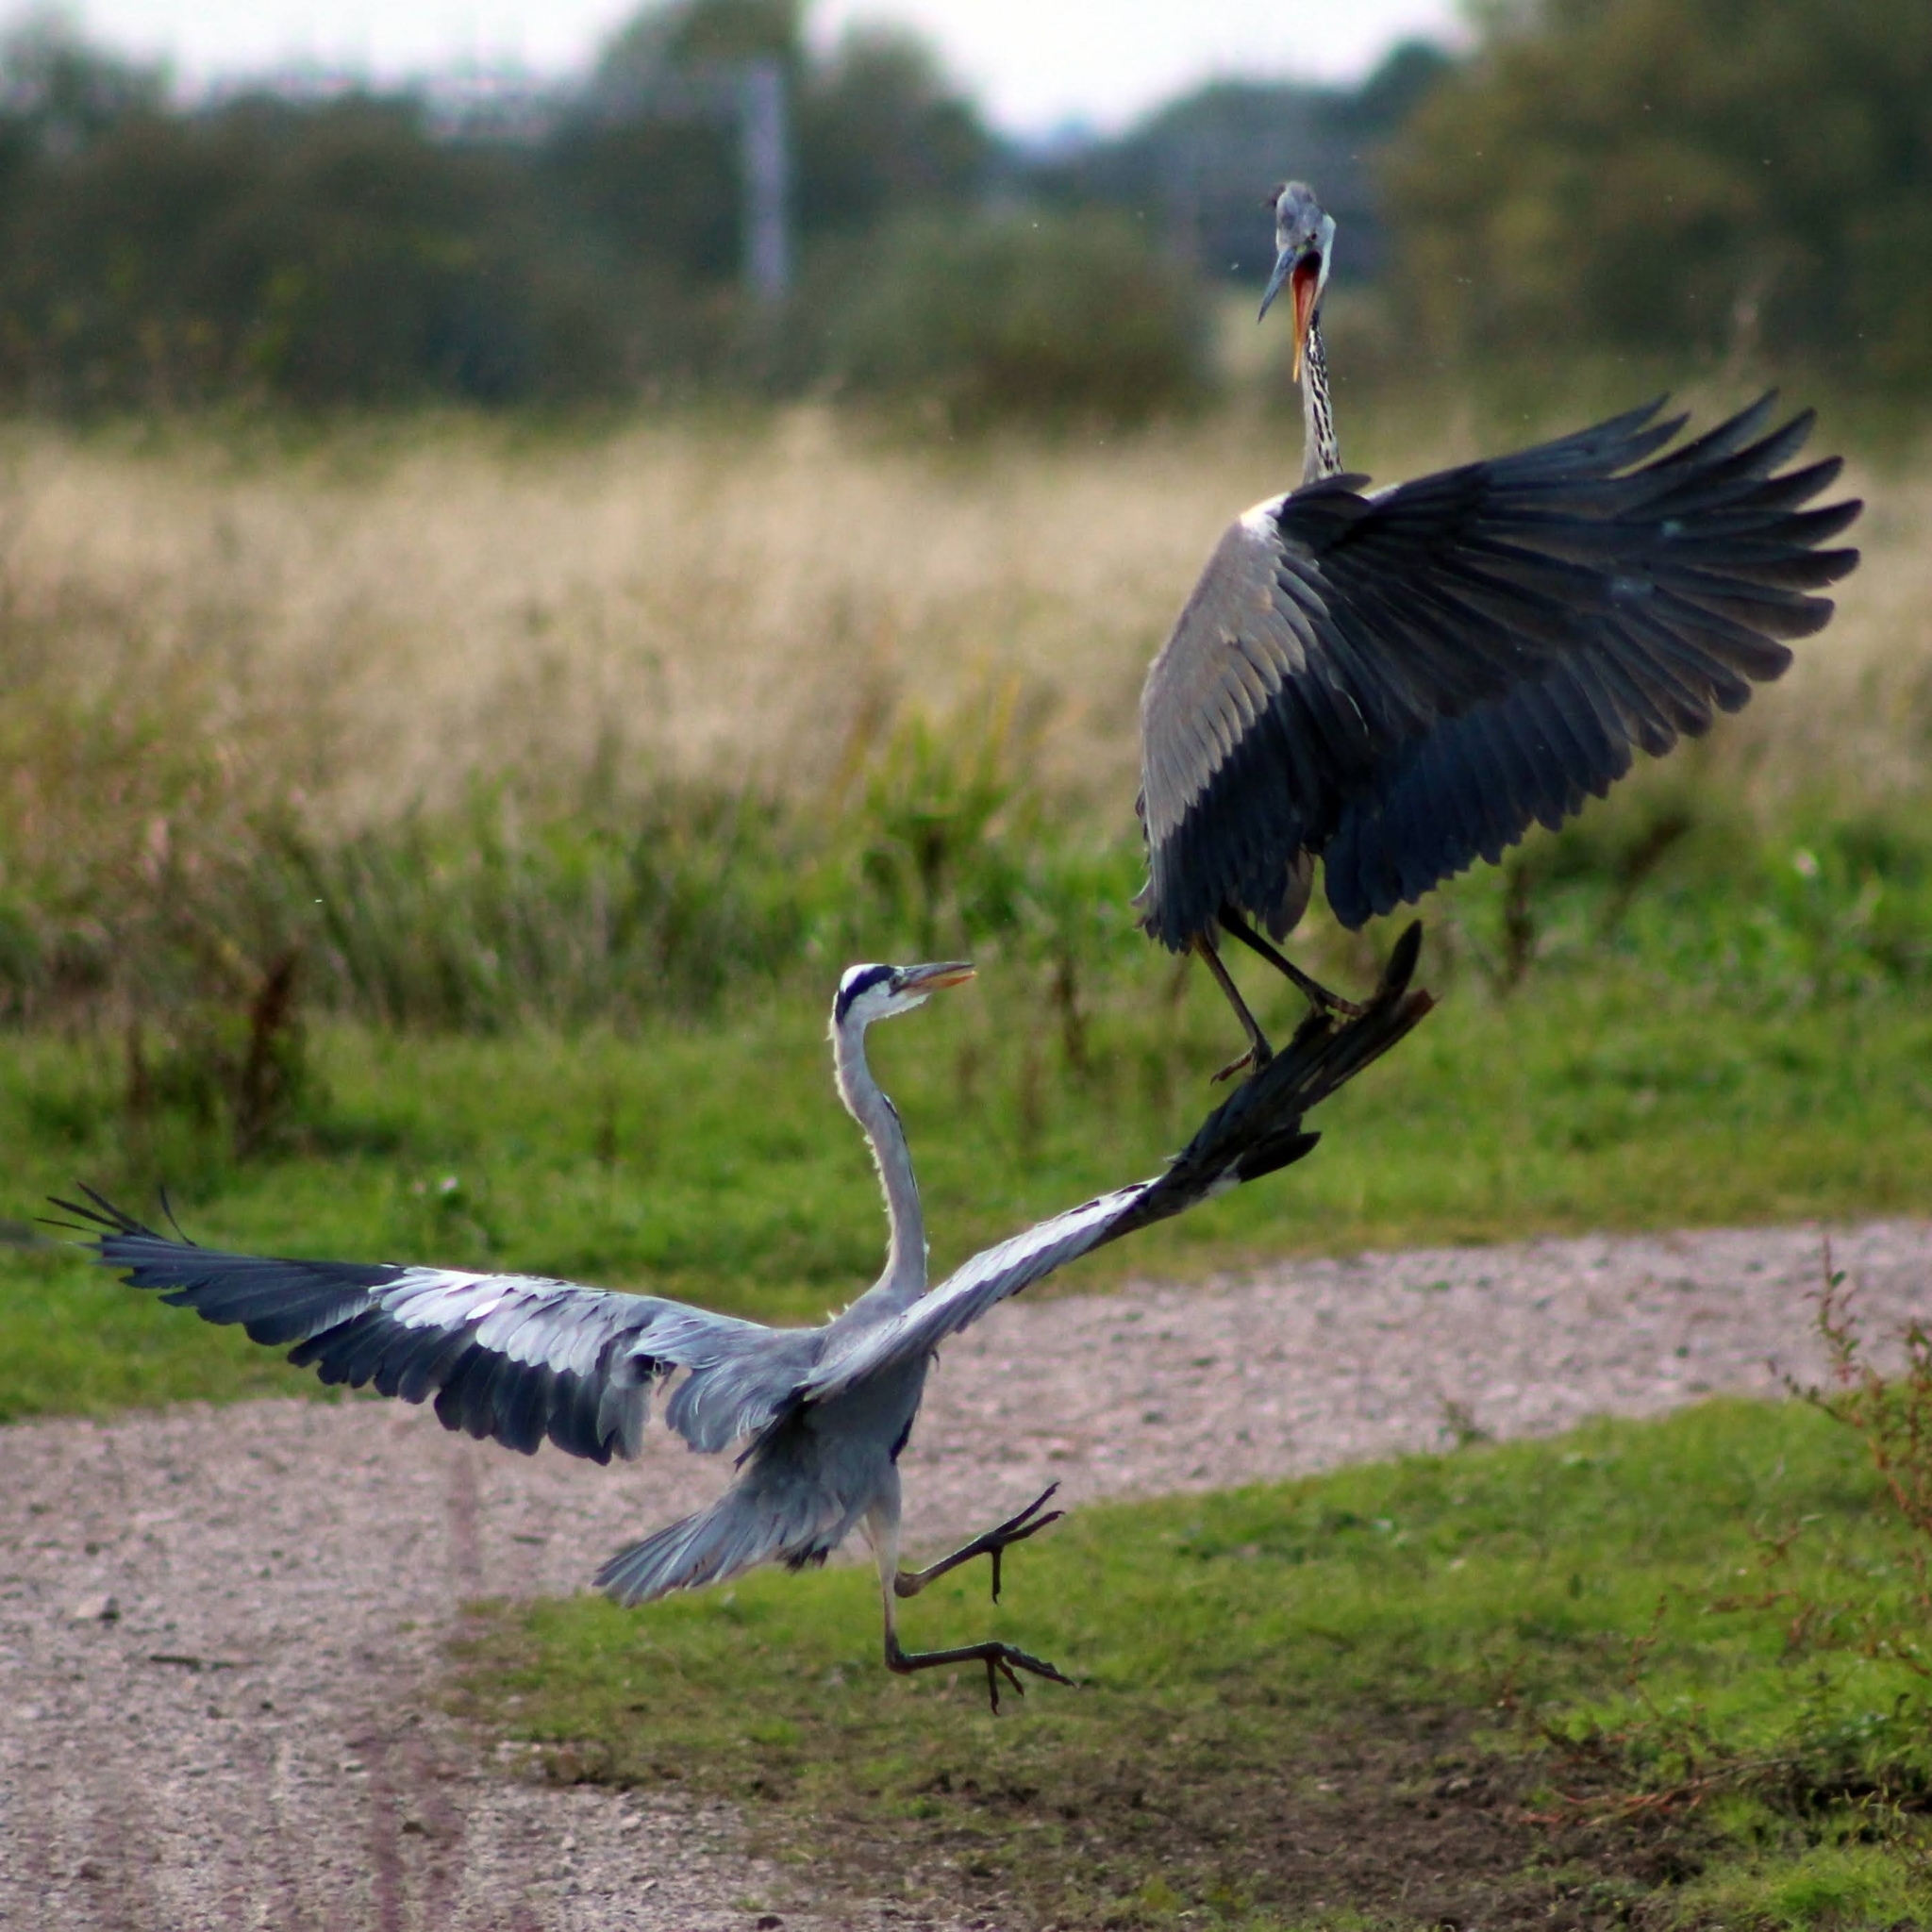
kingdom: Animalia
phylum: Chordata
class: Aves
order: Pelecaniformes
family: Ardeidae
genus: Ardea
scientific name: Ardea cinerea
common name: Grey heron
